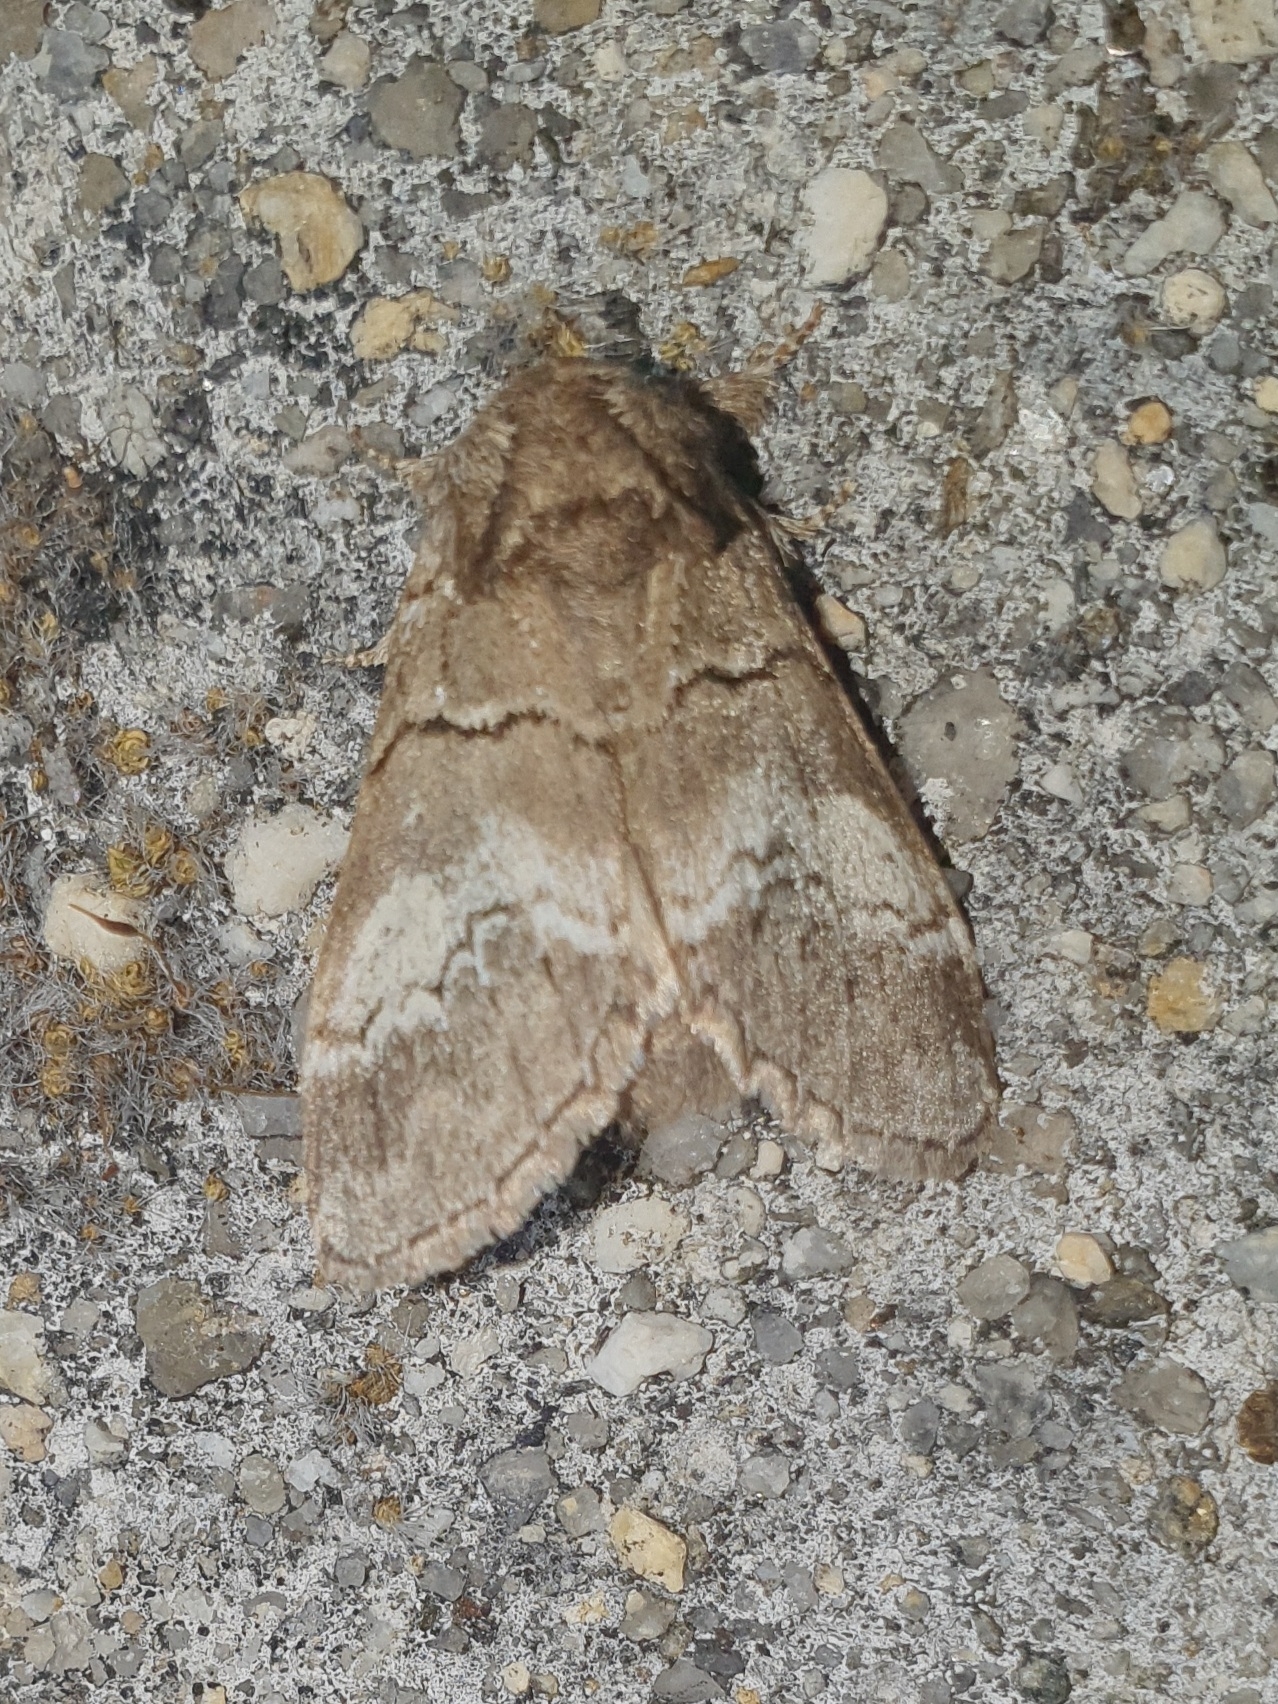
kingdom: Animalia
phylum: Arthropoda
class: Insecta
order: Lepidoptera
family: Notodontidae
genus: Drymonia
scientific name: Drymonia querna
